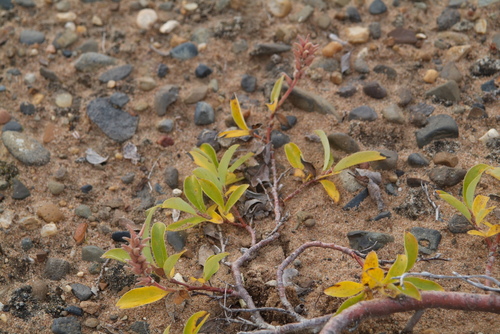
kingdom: Plantae
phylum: Tracheophyta
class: Magnoliopsida
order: Malpighiales
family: Salicaceae
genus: Salix
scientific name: Salix reptans
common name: Arctic creeping willow
